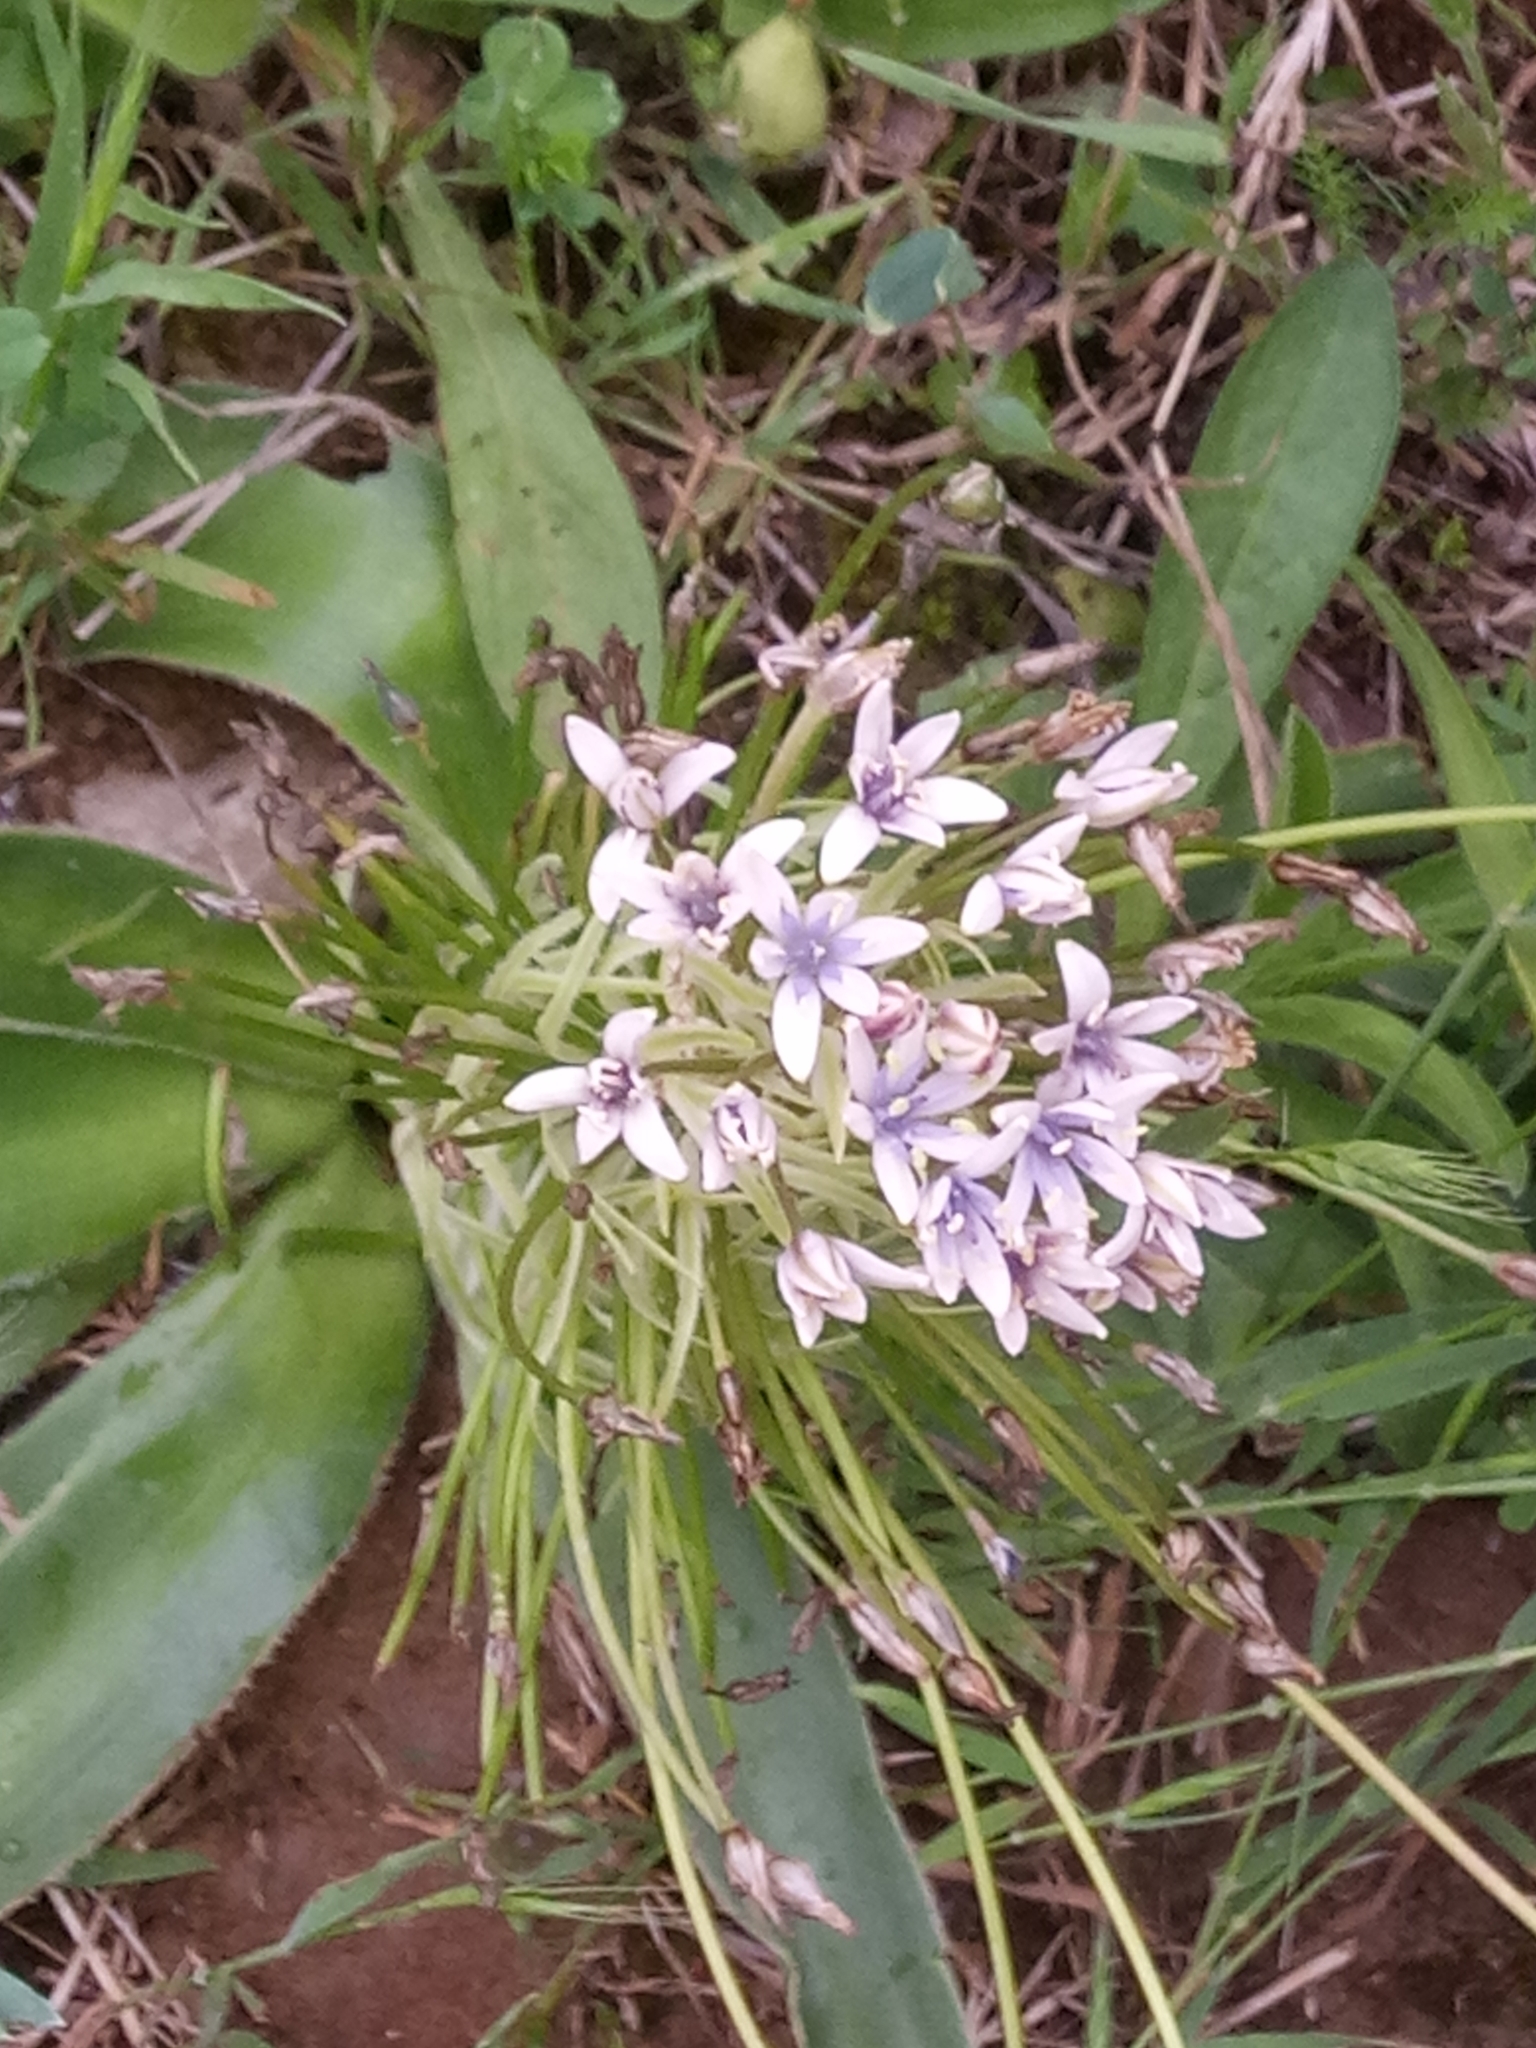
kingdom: Plantae
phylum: Tracheophyta
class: Liliopsida
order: Asparagales
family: Asparagaceae
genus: Scilla
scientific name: Scilla peruviana
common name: Portuguese squill
